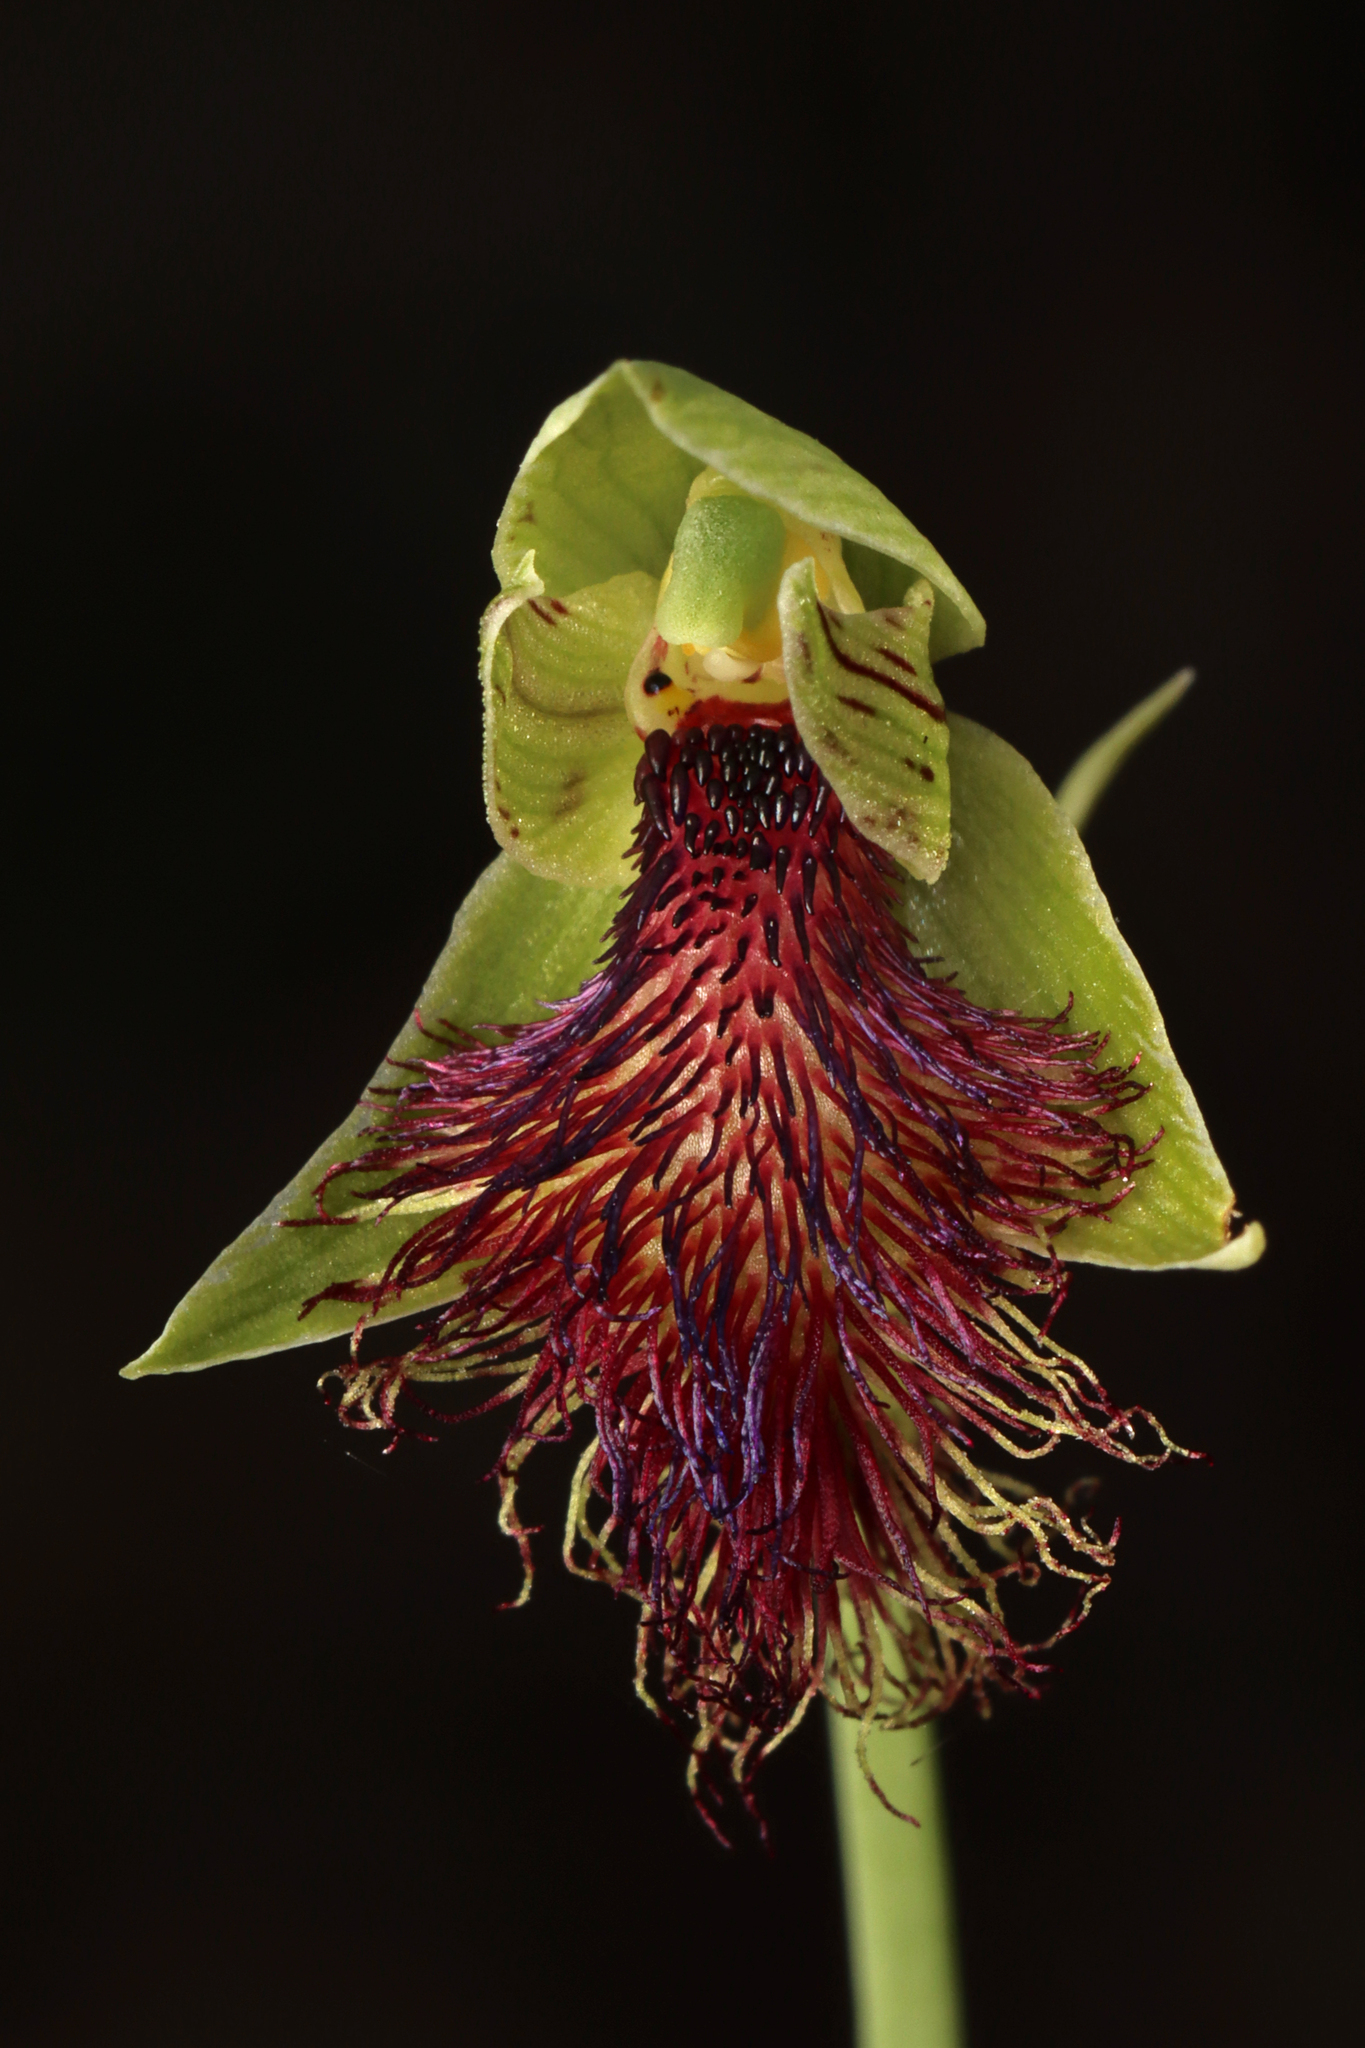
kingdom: Plantae
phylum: Tracheophyta
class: Liliopsida
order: Asparagales
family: Orchidaceae
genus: Calochilus
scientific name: Calochilus robertsonii
